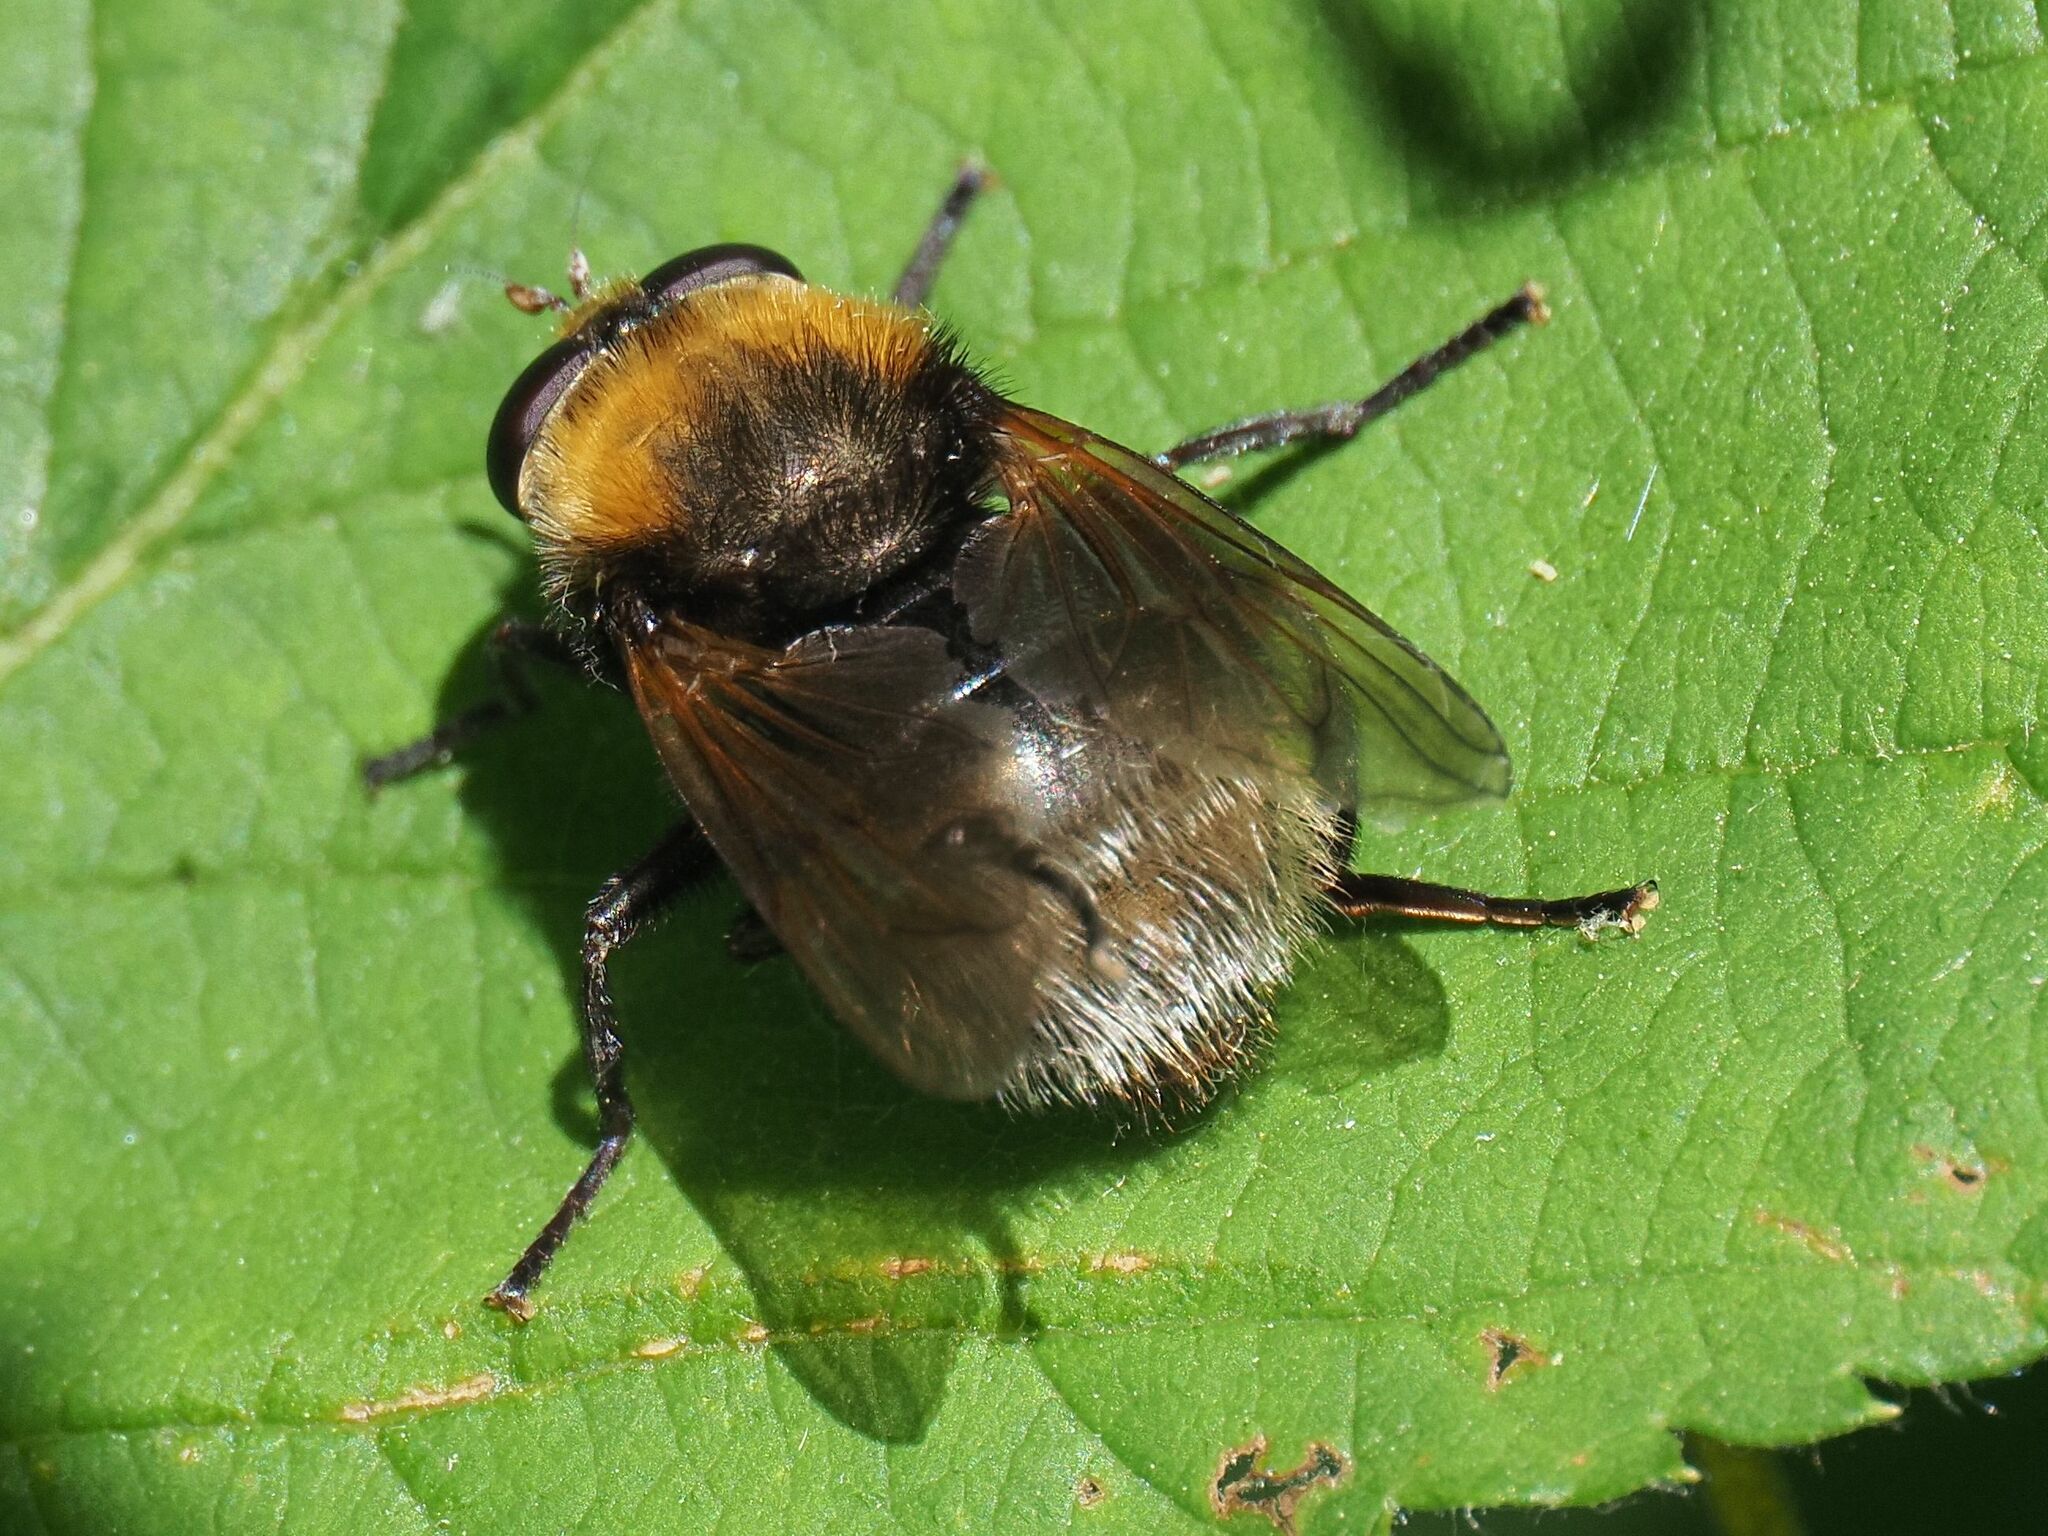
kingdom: Animalia
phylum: Arthropoda
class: Insecta
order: Diptera
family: Syrphidae
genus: Criorhina
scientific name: Criorhina berberina
